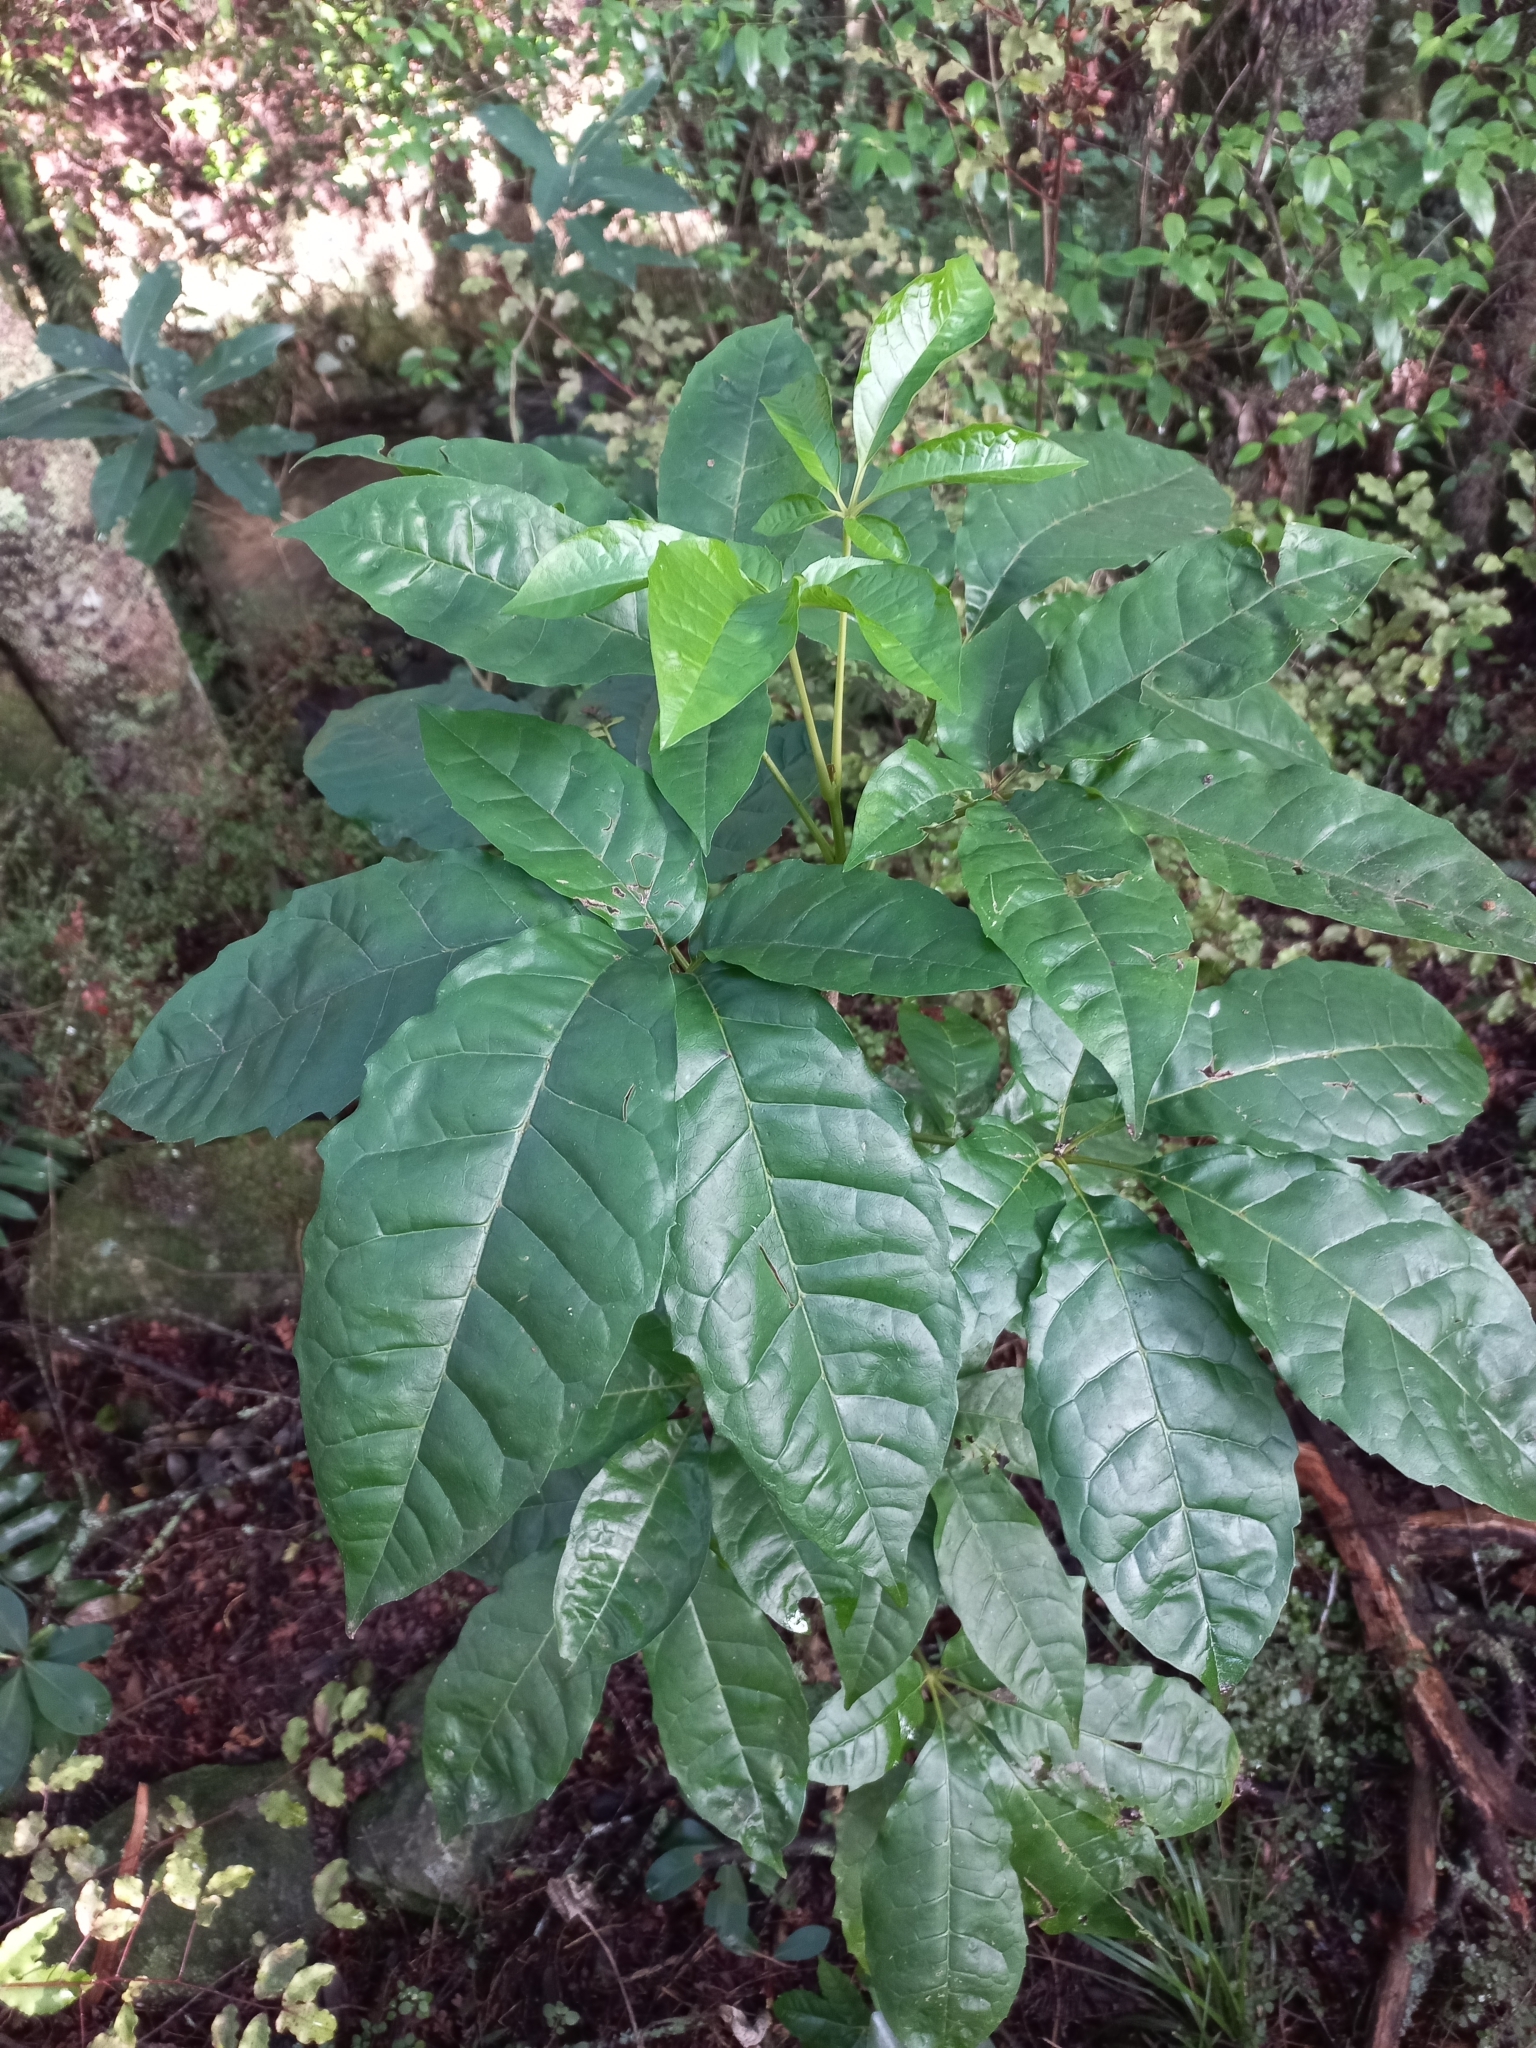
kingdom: Plantae
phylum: Tracheophyta
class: Magnoliopsida
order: Lamiales
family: Lamiaceae
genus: Vitex
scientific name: Vitex lucens
